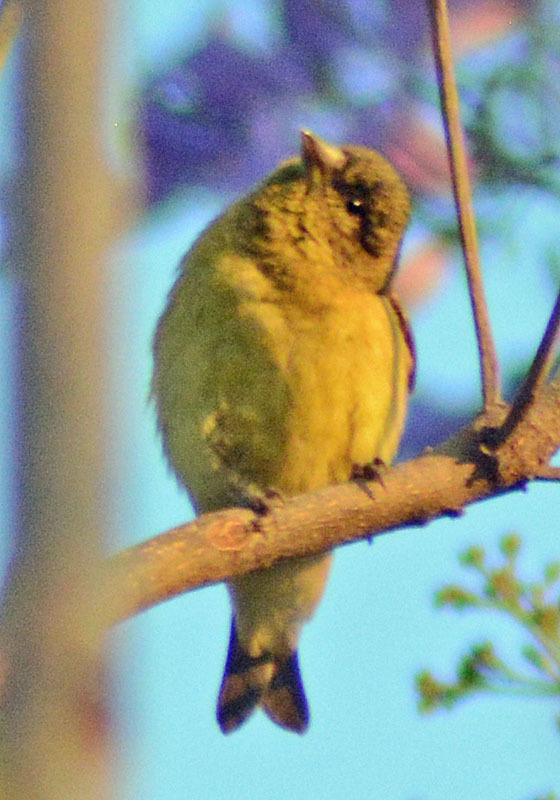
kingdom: Animalia
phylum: Chordata
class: Aves
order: Passeriformes
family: Fringillidae
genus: Spinus
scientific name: Spinus psaltria
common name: Lesser goldfinch
